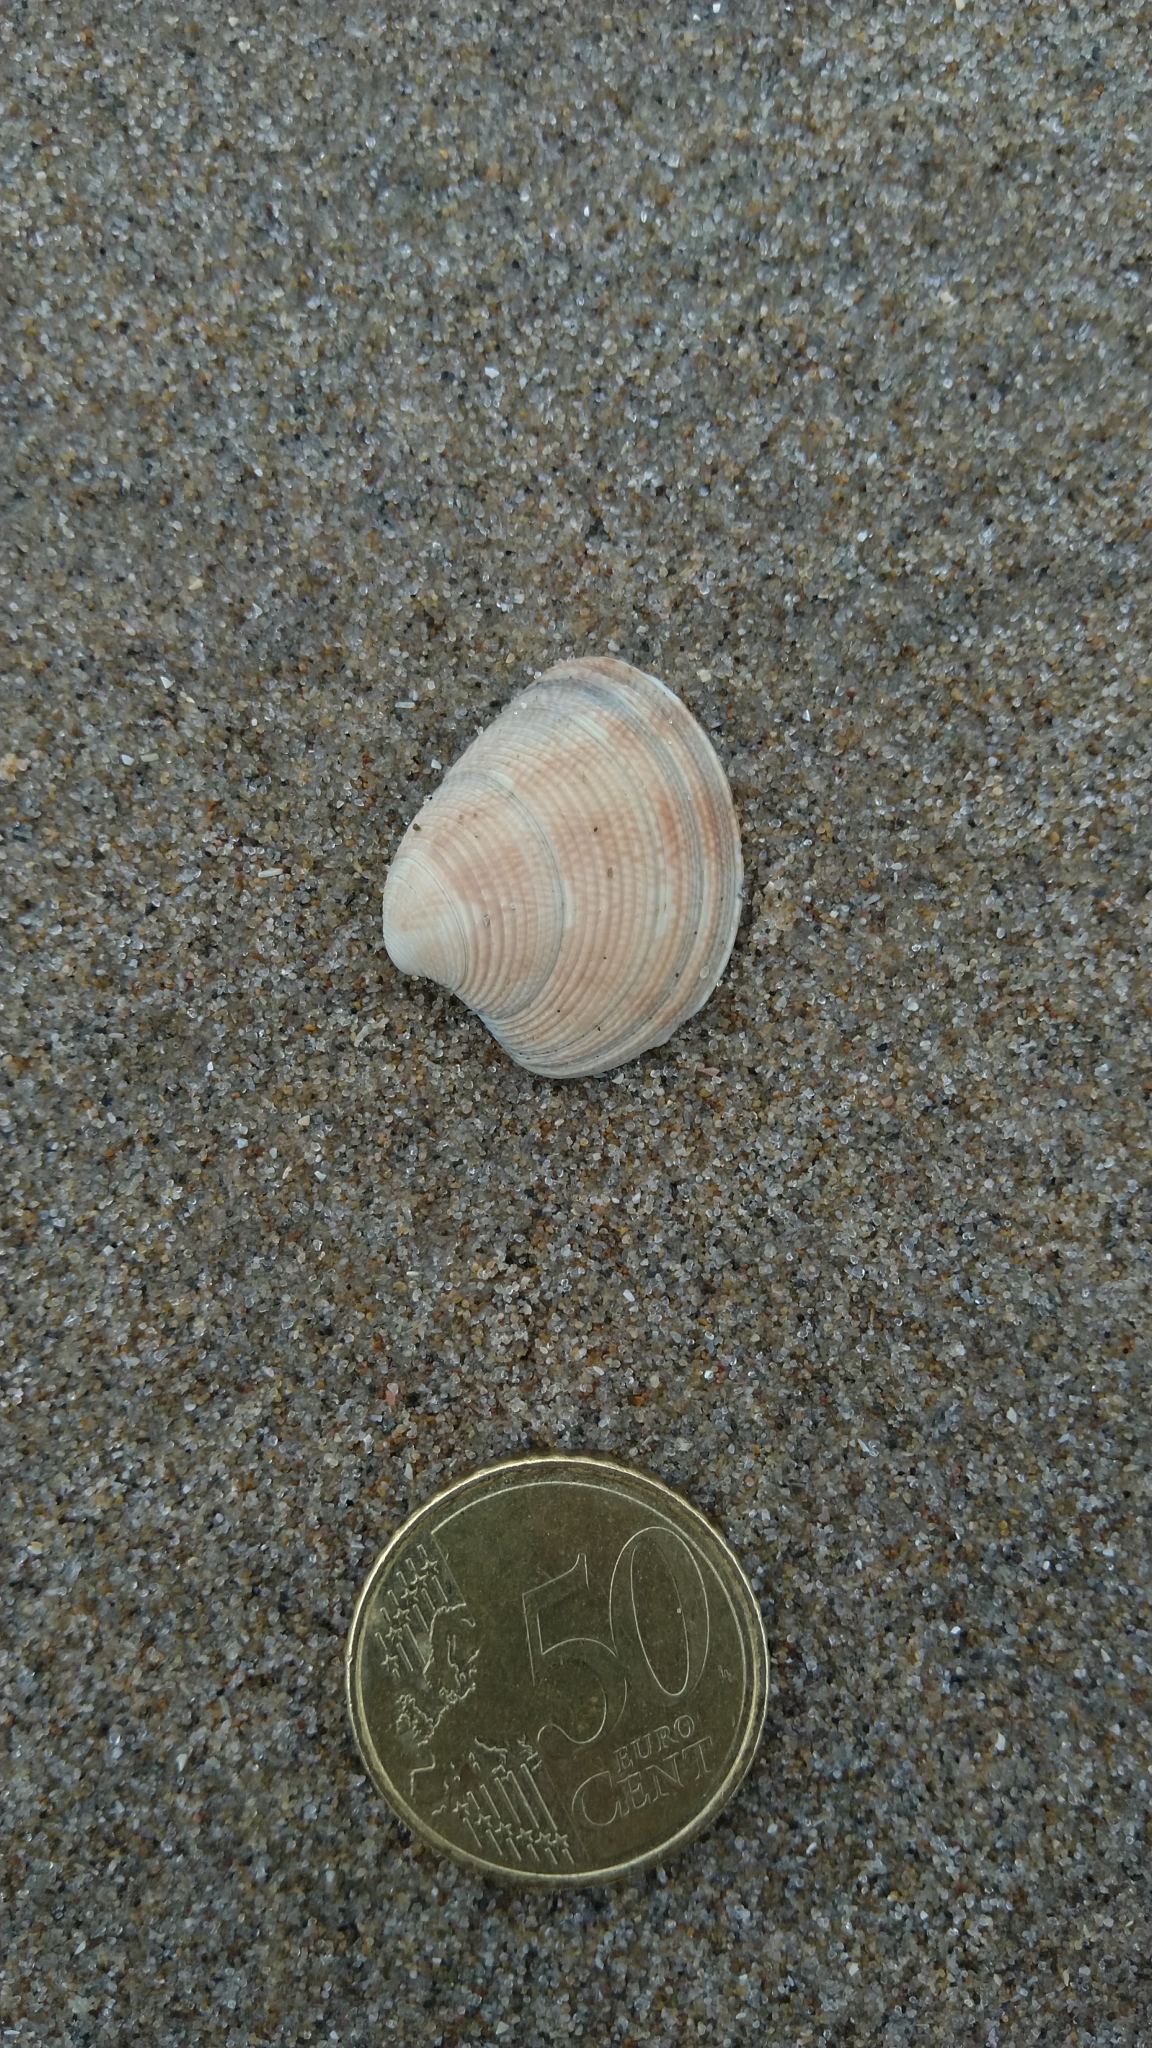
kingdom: Animalia
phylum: Mollusca
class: Bivalvia
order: Venerida
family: Veneridae
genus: Chamelea
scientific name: Chamelea striatula
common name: Striped venus
